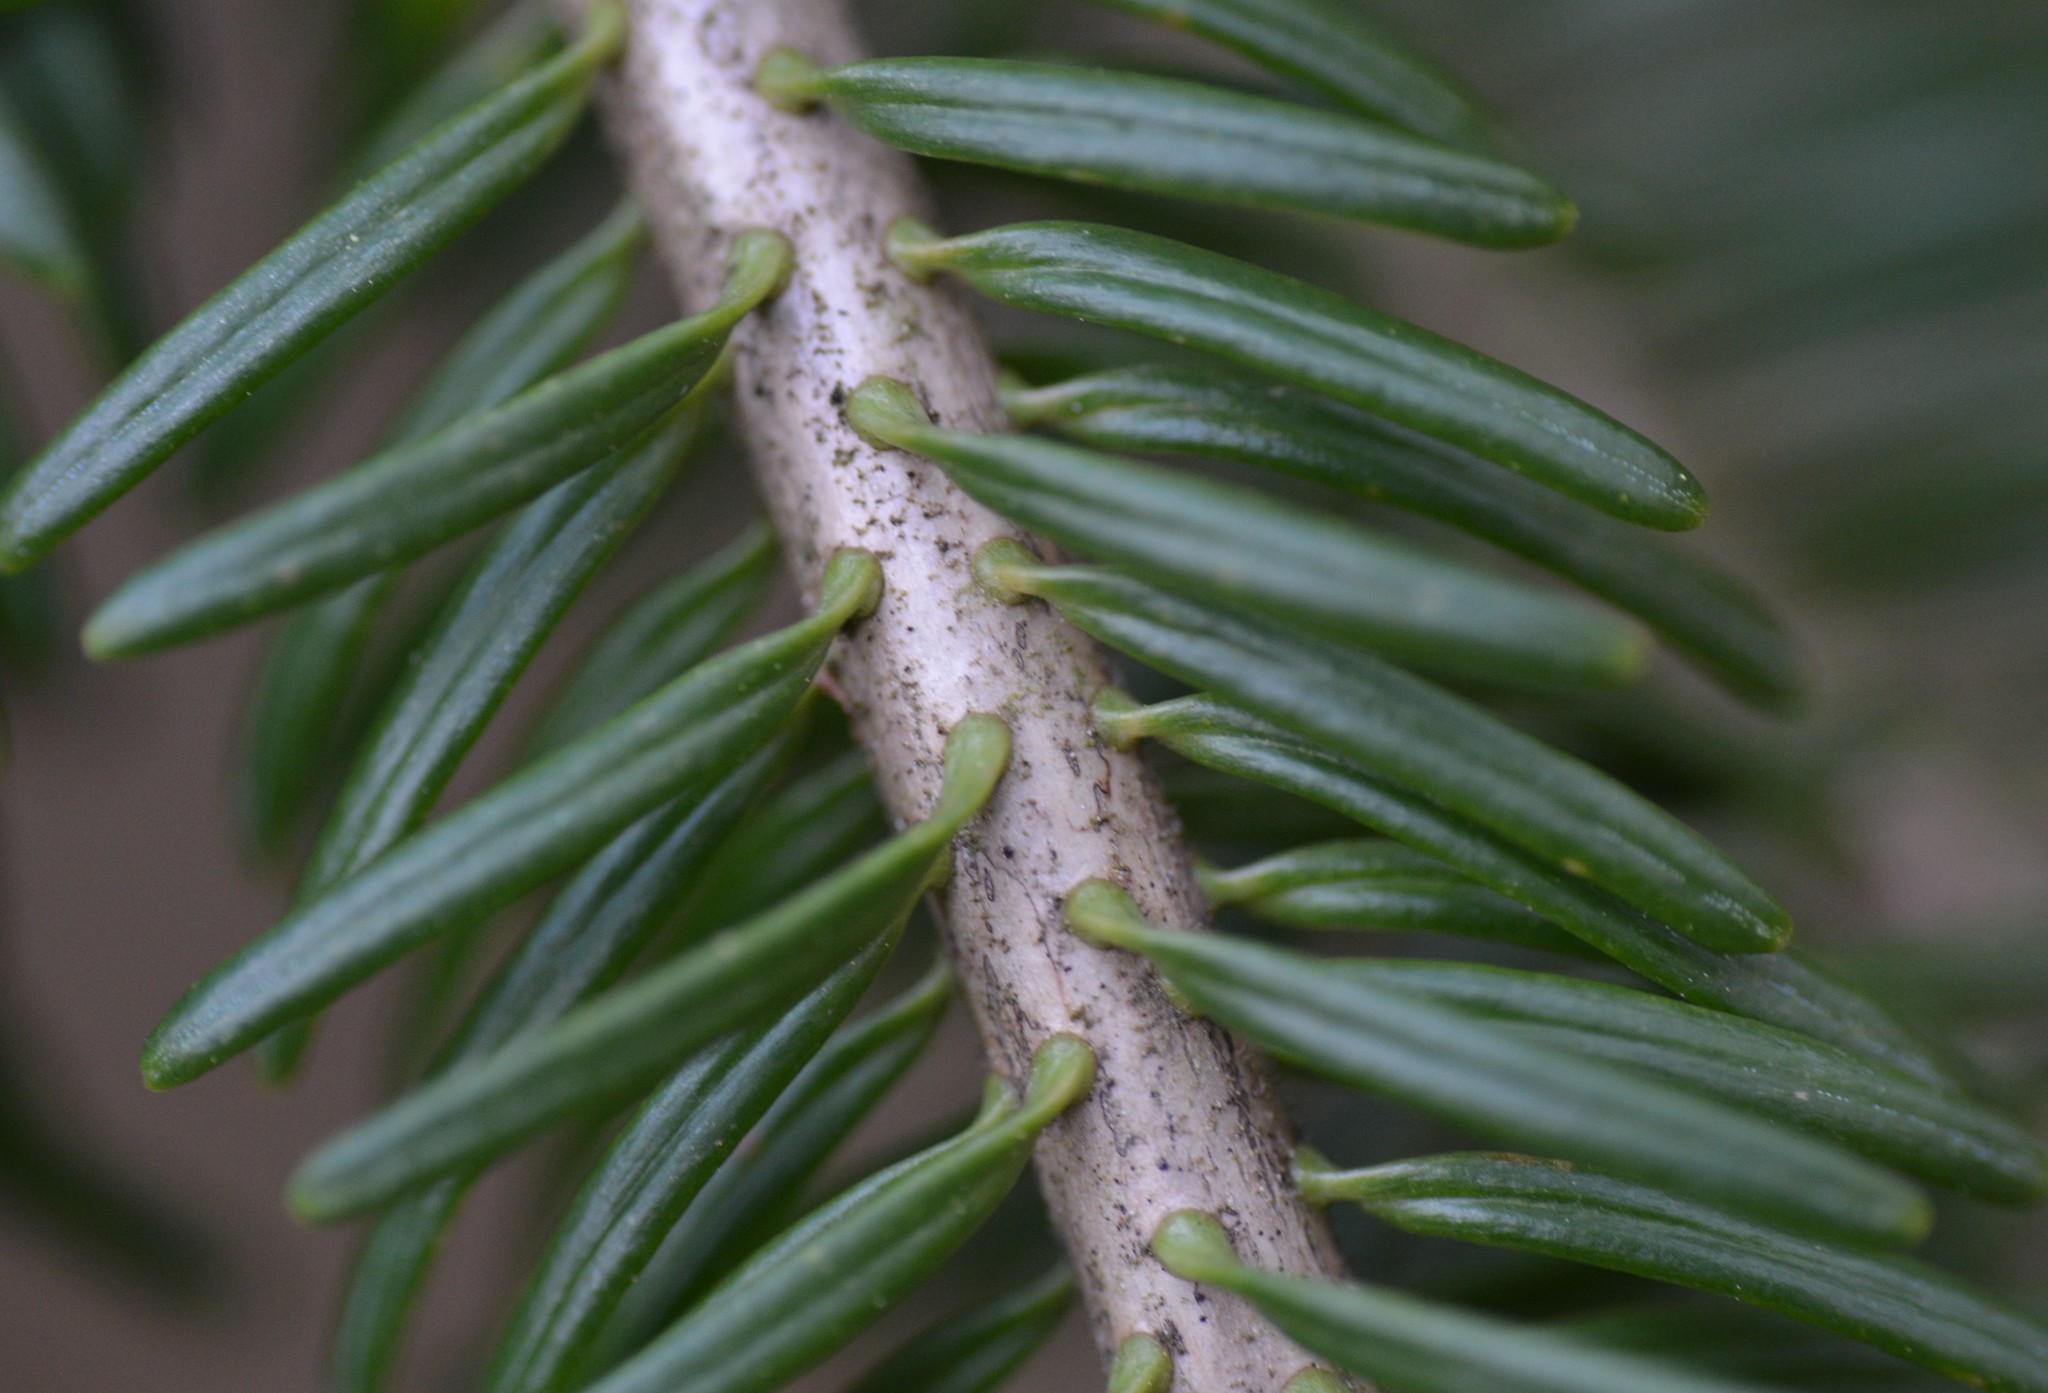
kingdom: Plantae
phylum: Tracheophyta
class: Pinopsida
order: Pinales
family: Pinaceae
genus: Abies
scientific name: Abies balsamea
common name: Balsam fir
